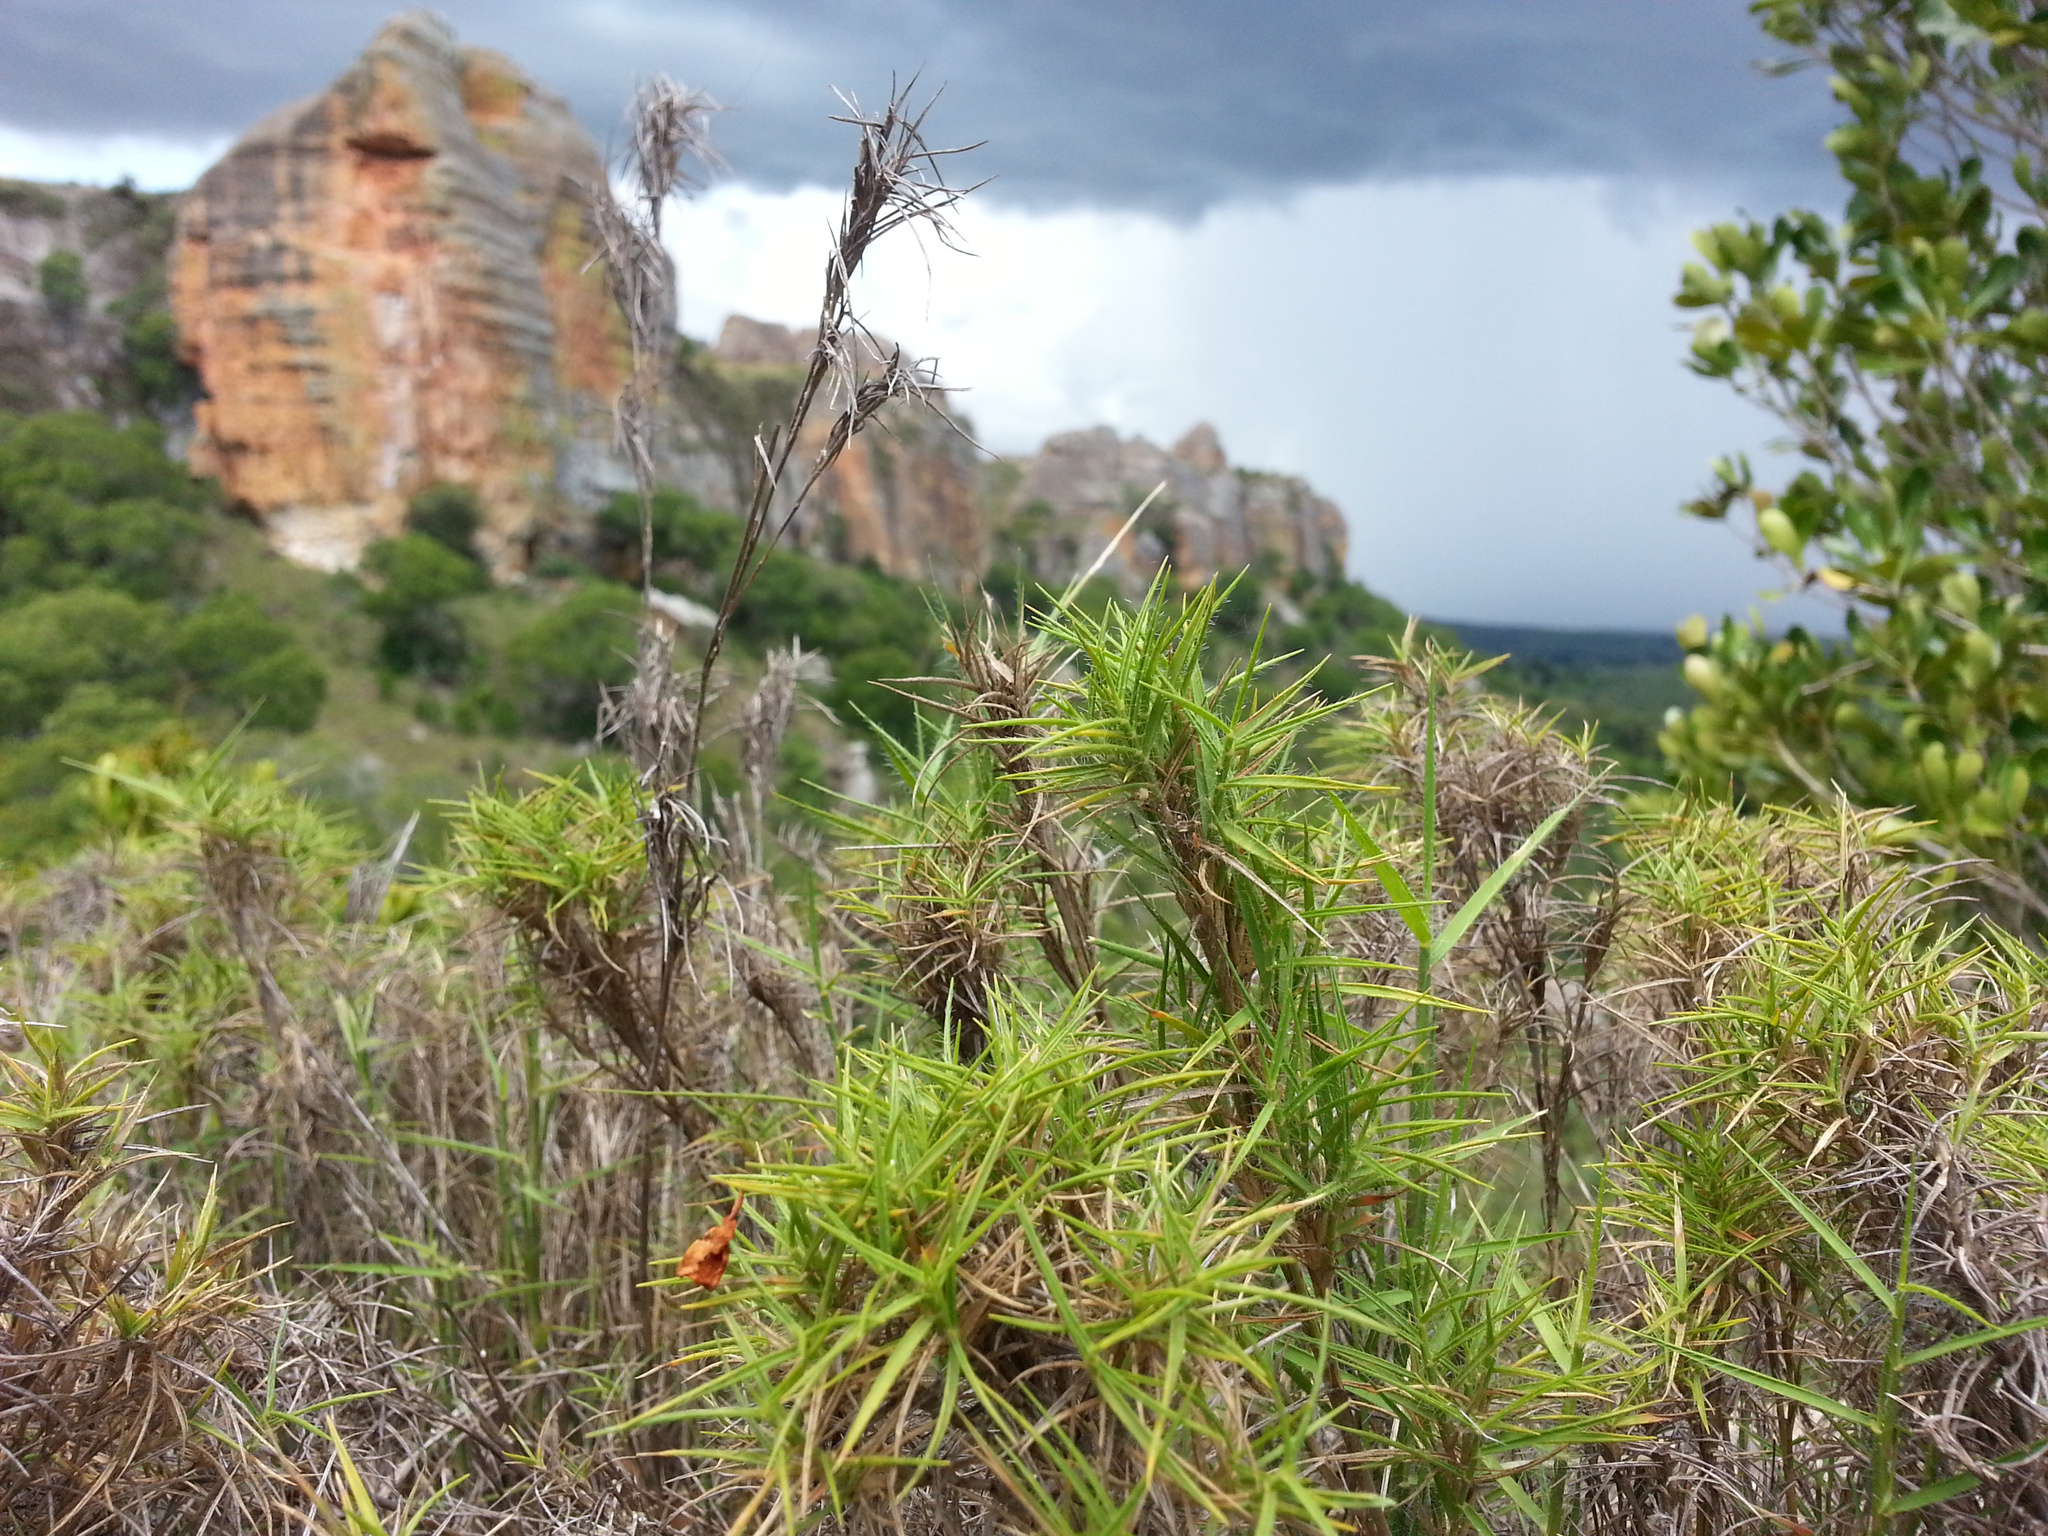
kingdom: Plantae
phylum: Tracheophyta
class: Liliopsida
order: Poales
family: Poaceae
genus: Danthoniopsis
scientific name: Danthoniopsis isalensis
